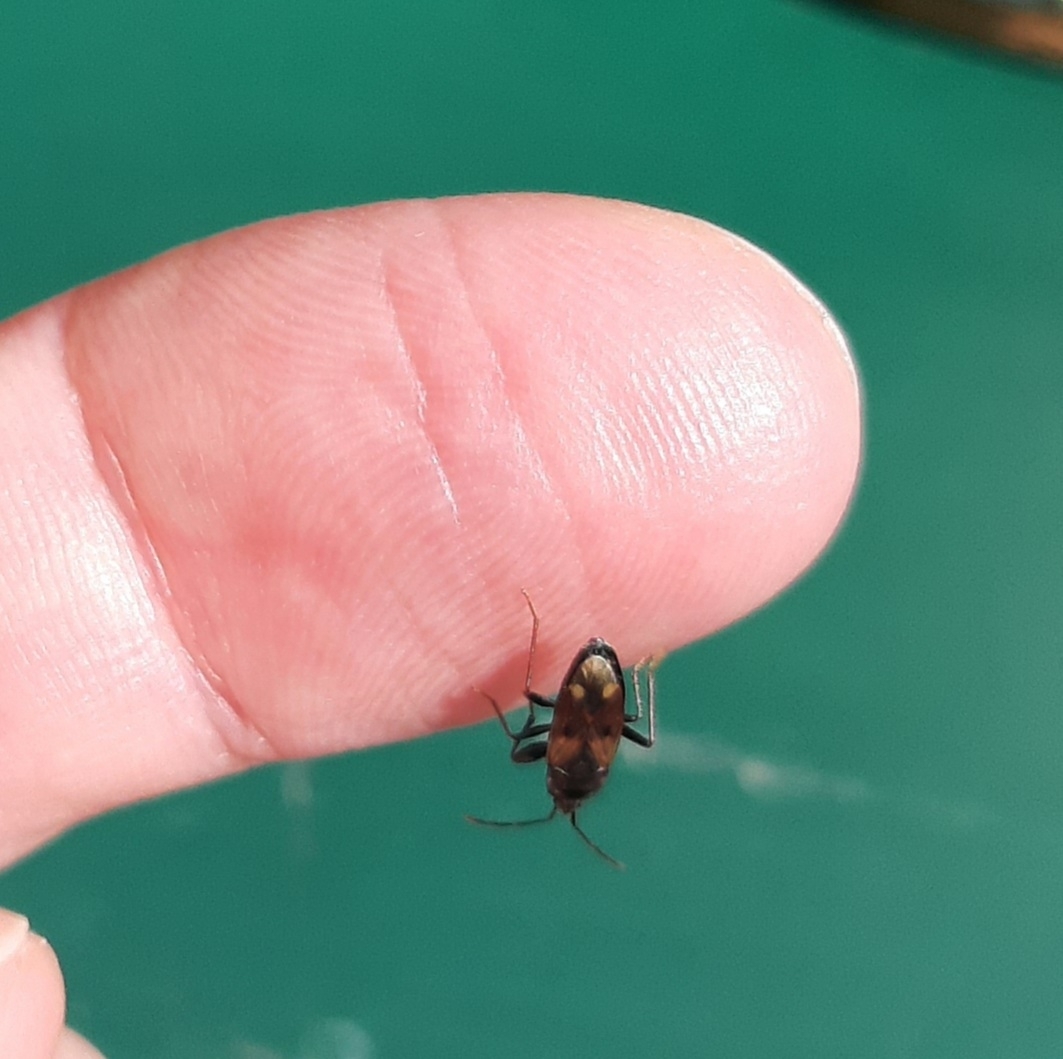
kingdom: Animalia
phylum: Arthropoda
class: Insecta
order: Hemiptera
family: Rhyparochromidae
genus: Eremocoris
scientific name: Eremocoris
